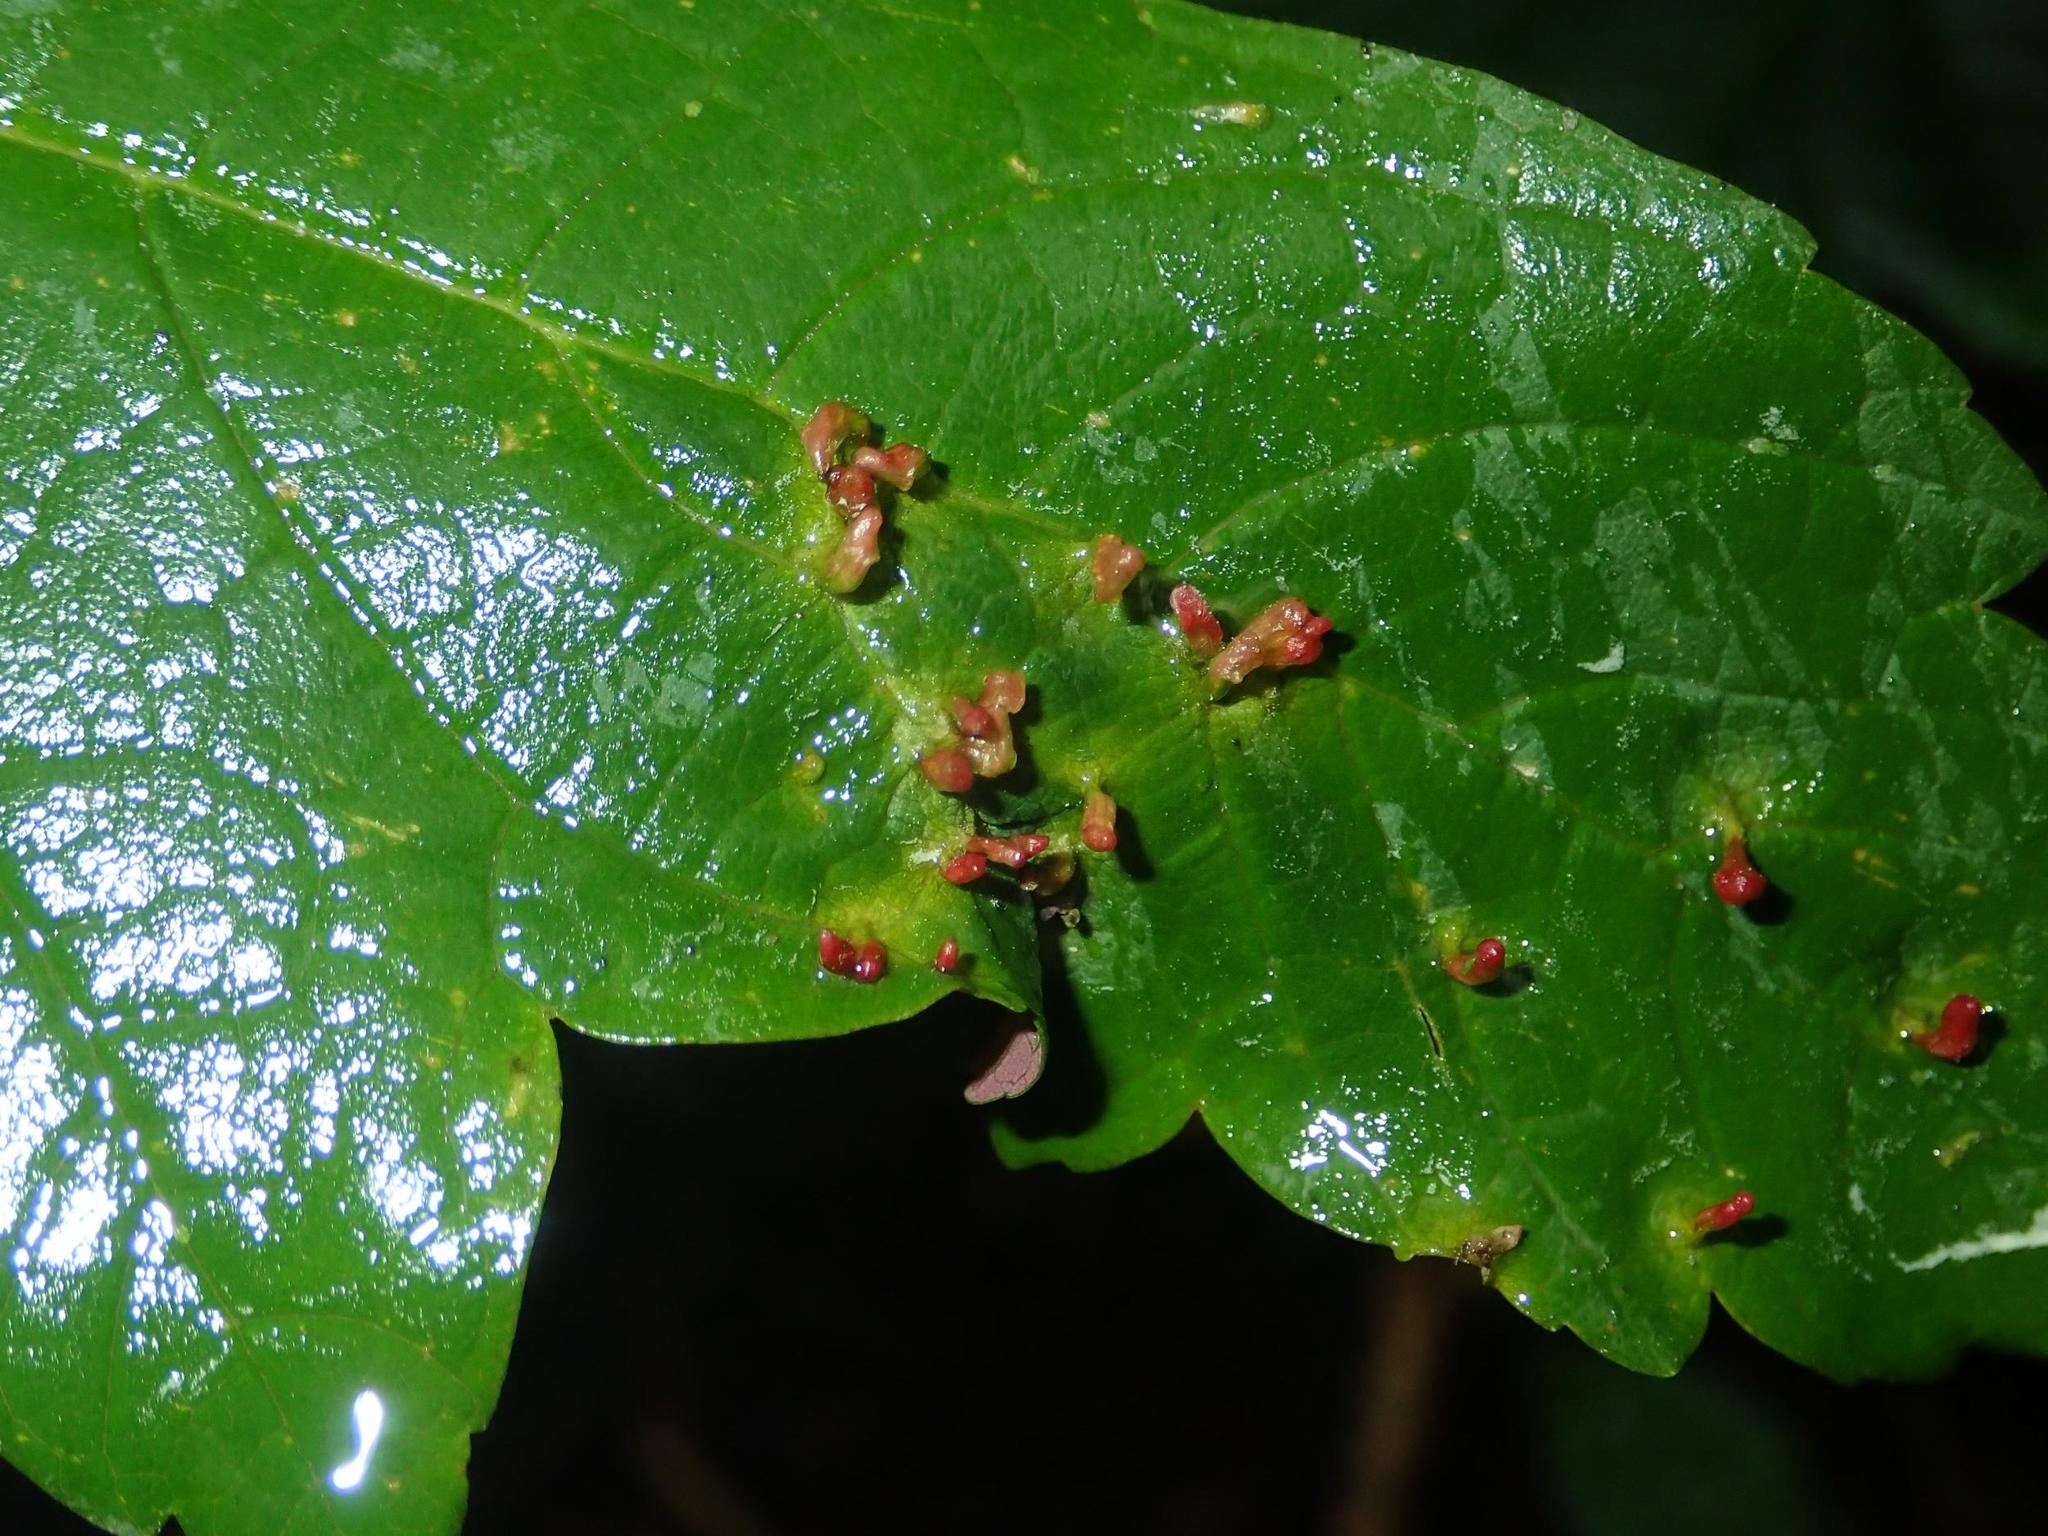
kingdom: Animalia
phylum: Arthropoda
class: Arachnida
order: Trombidiformes
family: Eriophyidae
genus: Aceria
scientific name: Aceria cephaloneus
